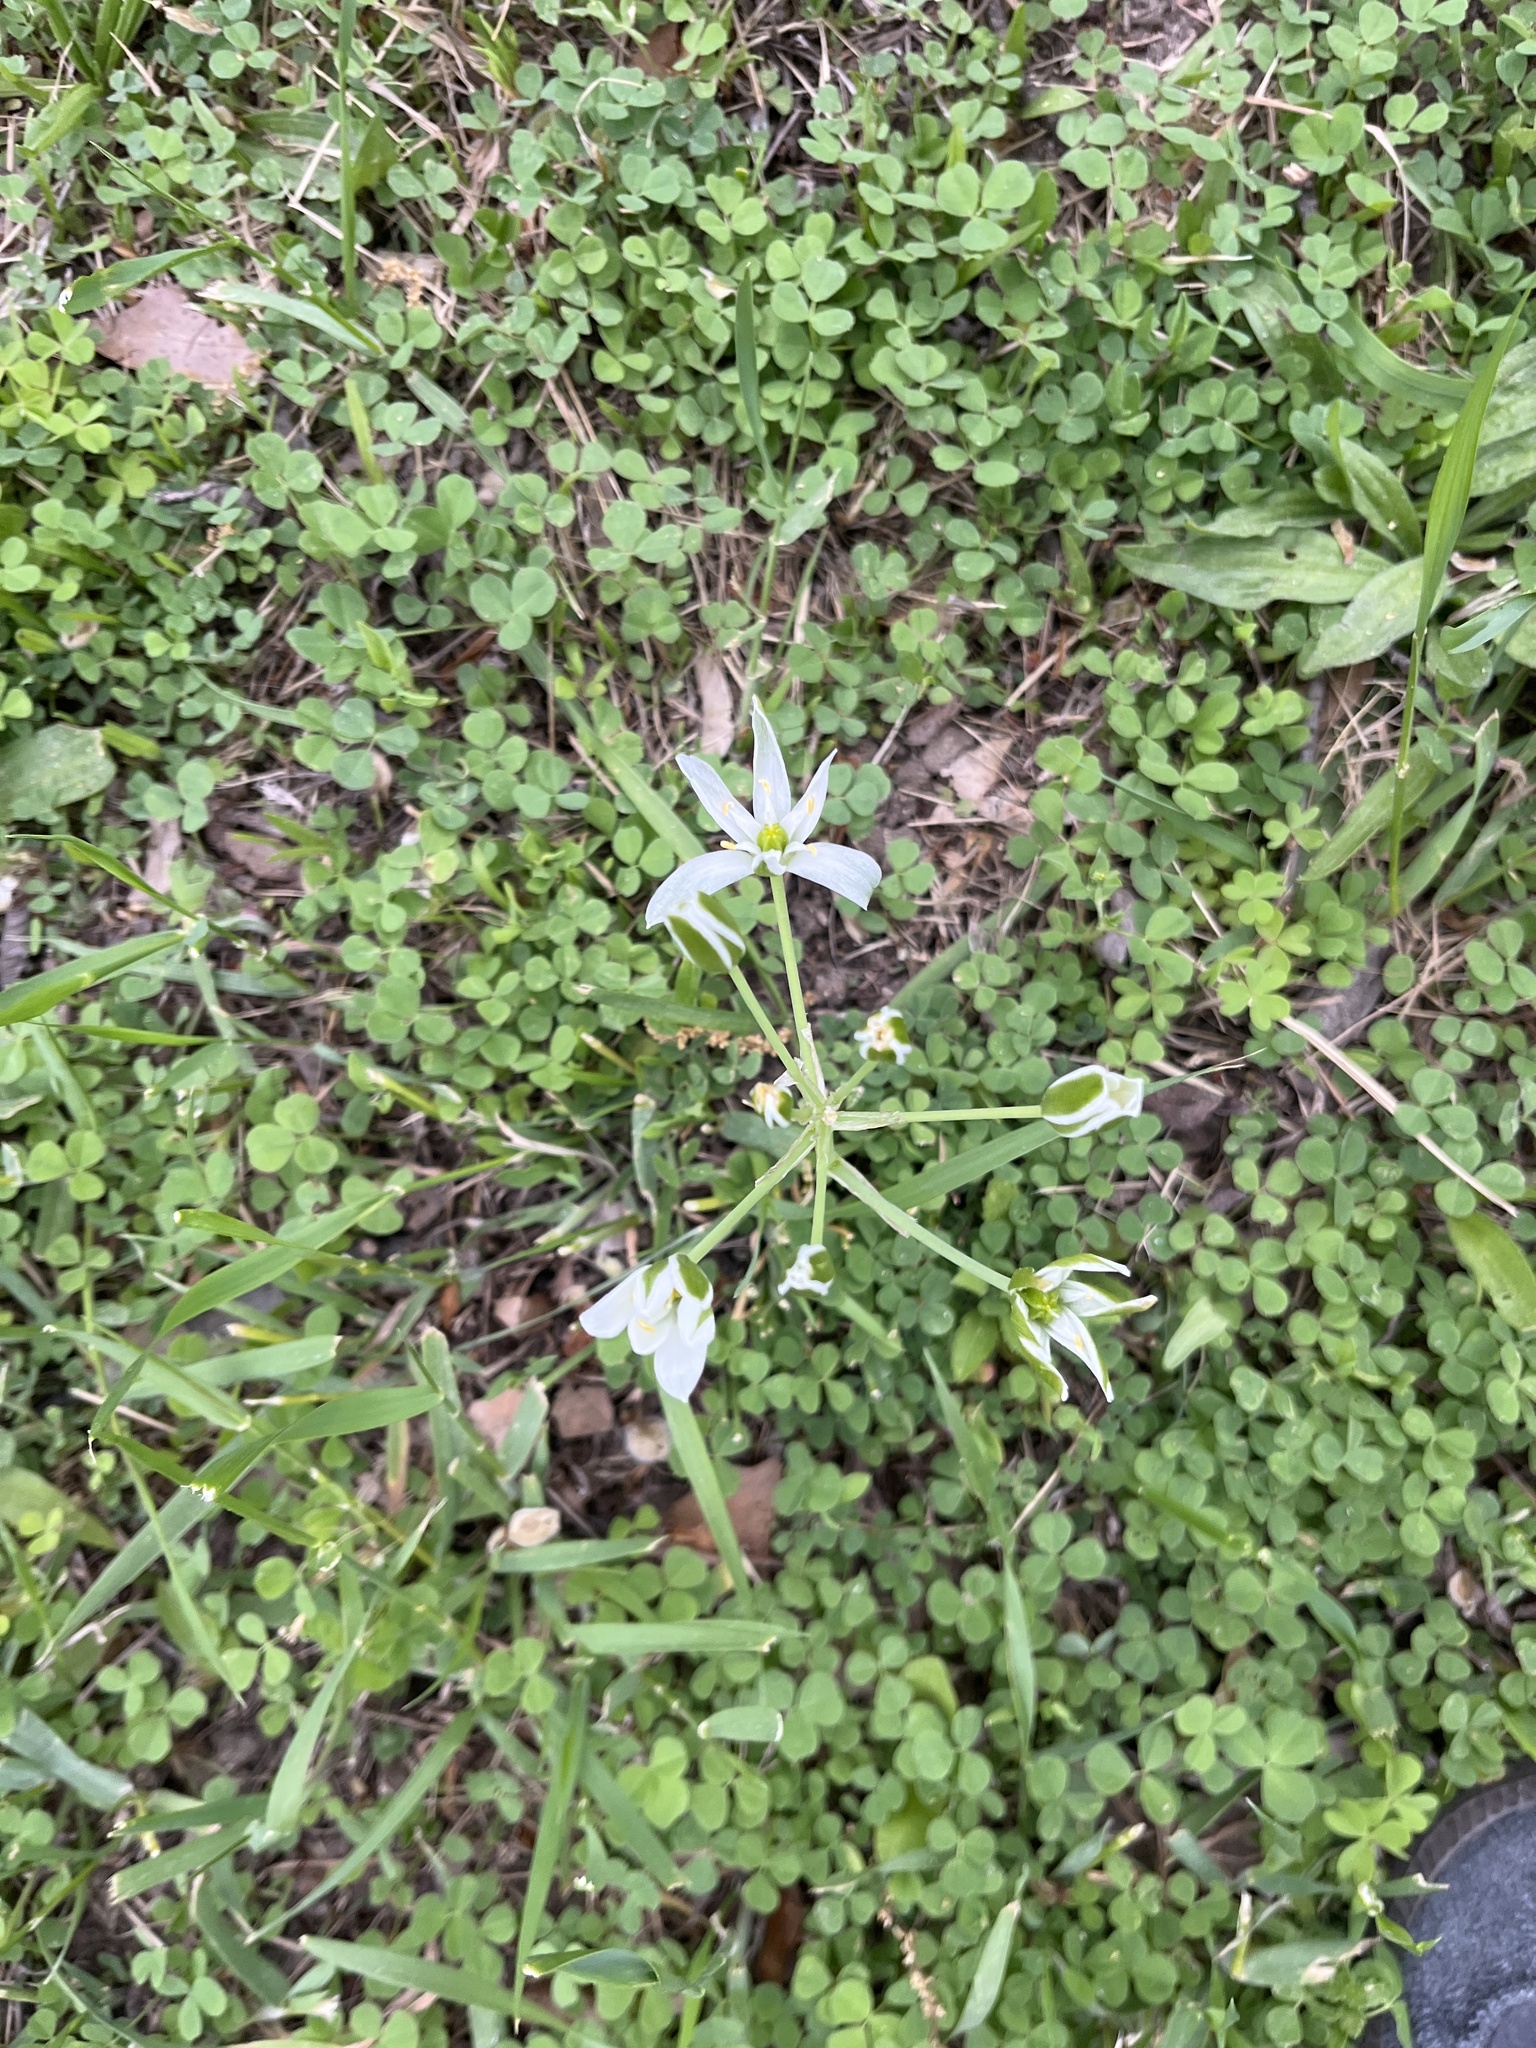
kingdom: Plantae
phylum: Tracheophyta
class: Liliopsida
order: Asparagales
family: Asparagaceae
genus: Ornithogalum
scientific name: Ornithogalum umbellatum
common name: Garden star-of-bethlehem
